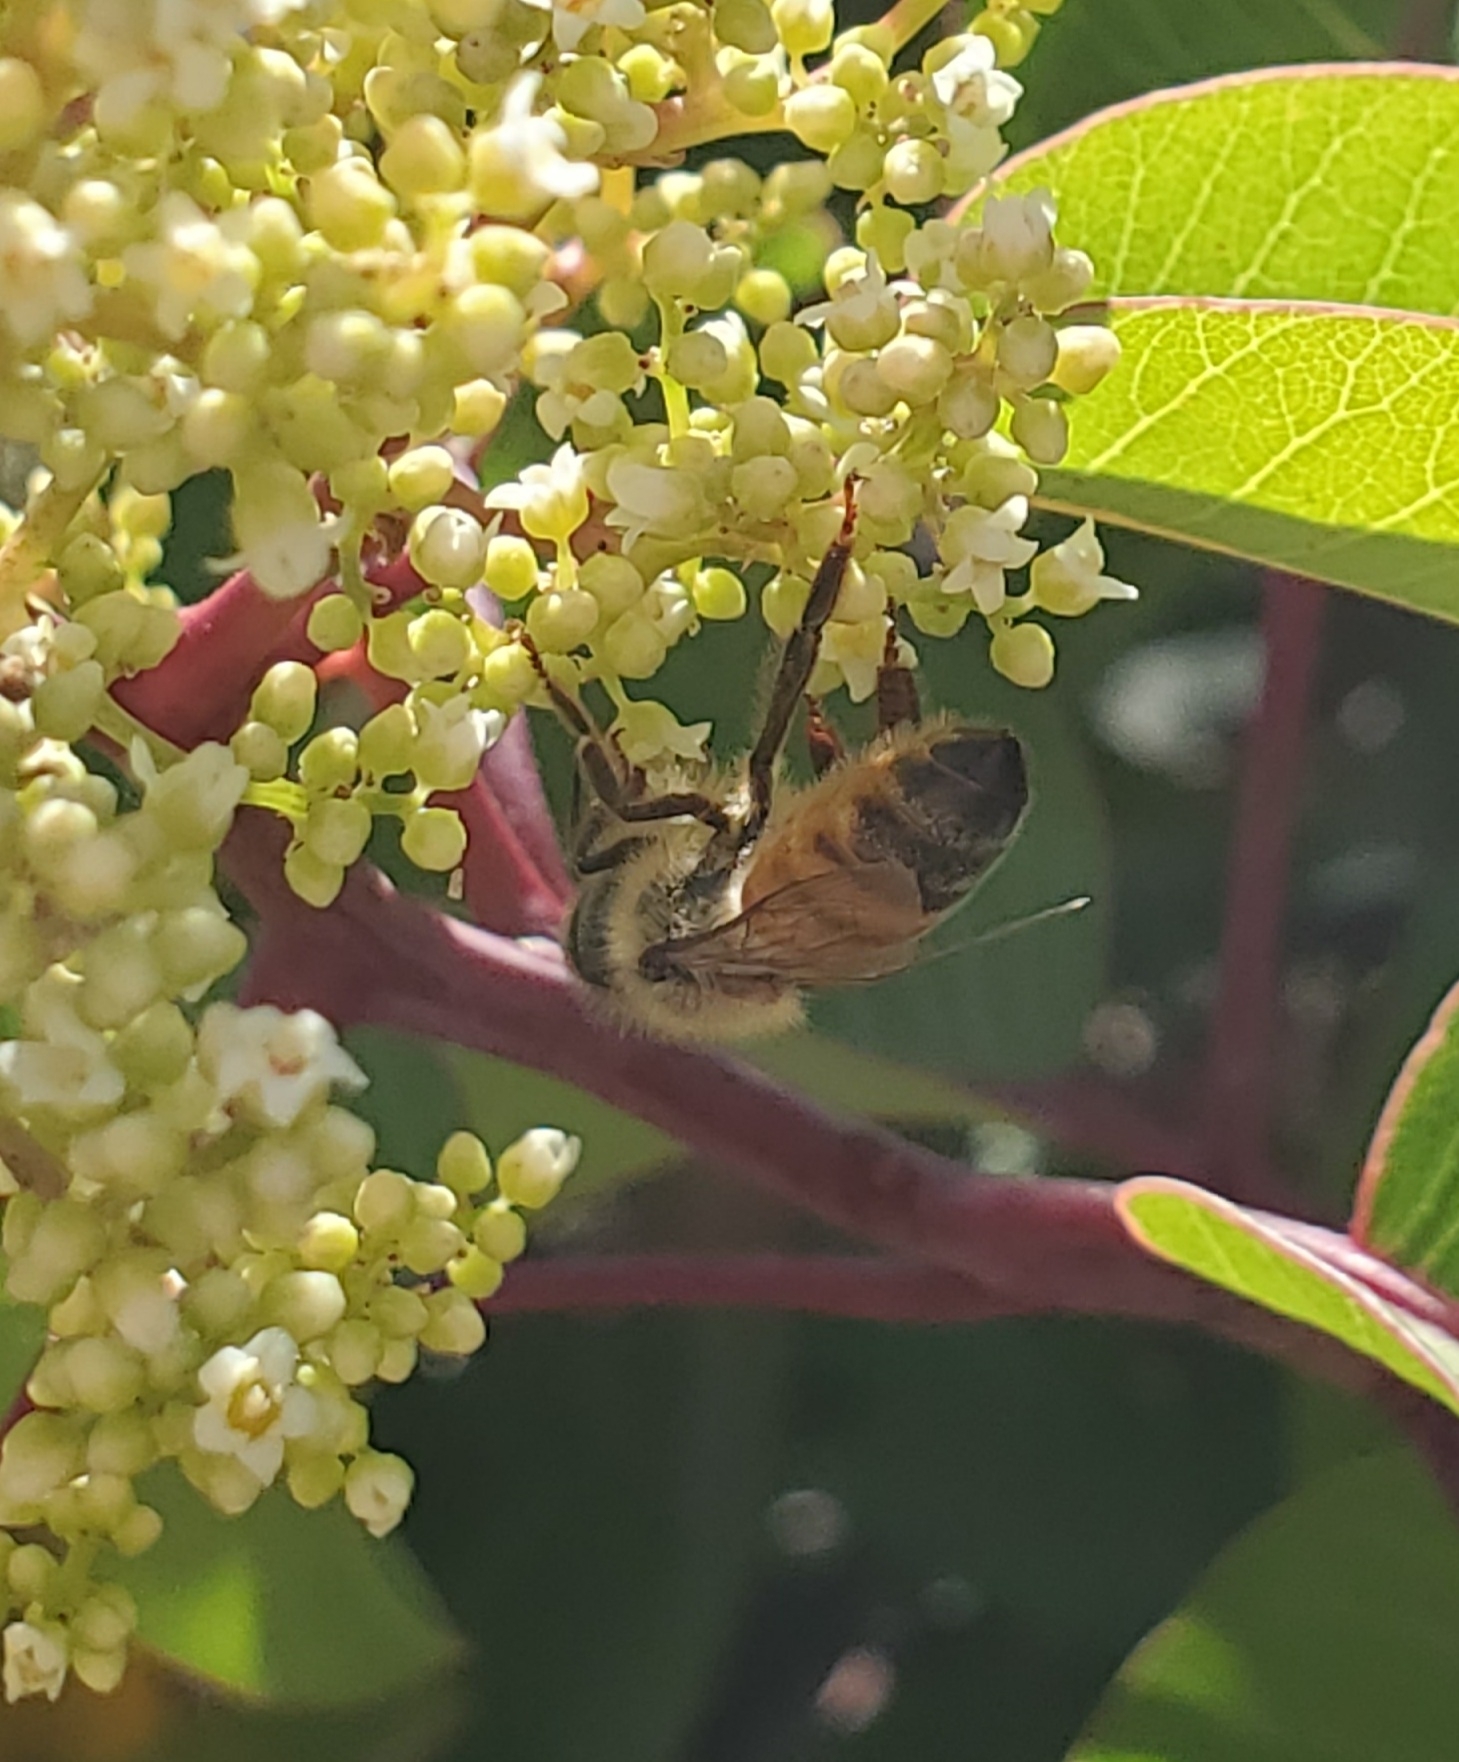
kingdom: Animalia
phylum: Arthropoda
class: Insecta
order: Hymenoptera
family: Apidae
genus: Apis
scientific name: Apis mellifera
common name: Honey bee
